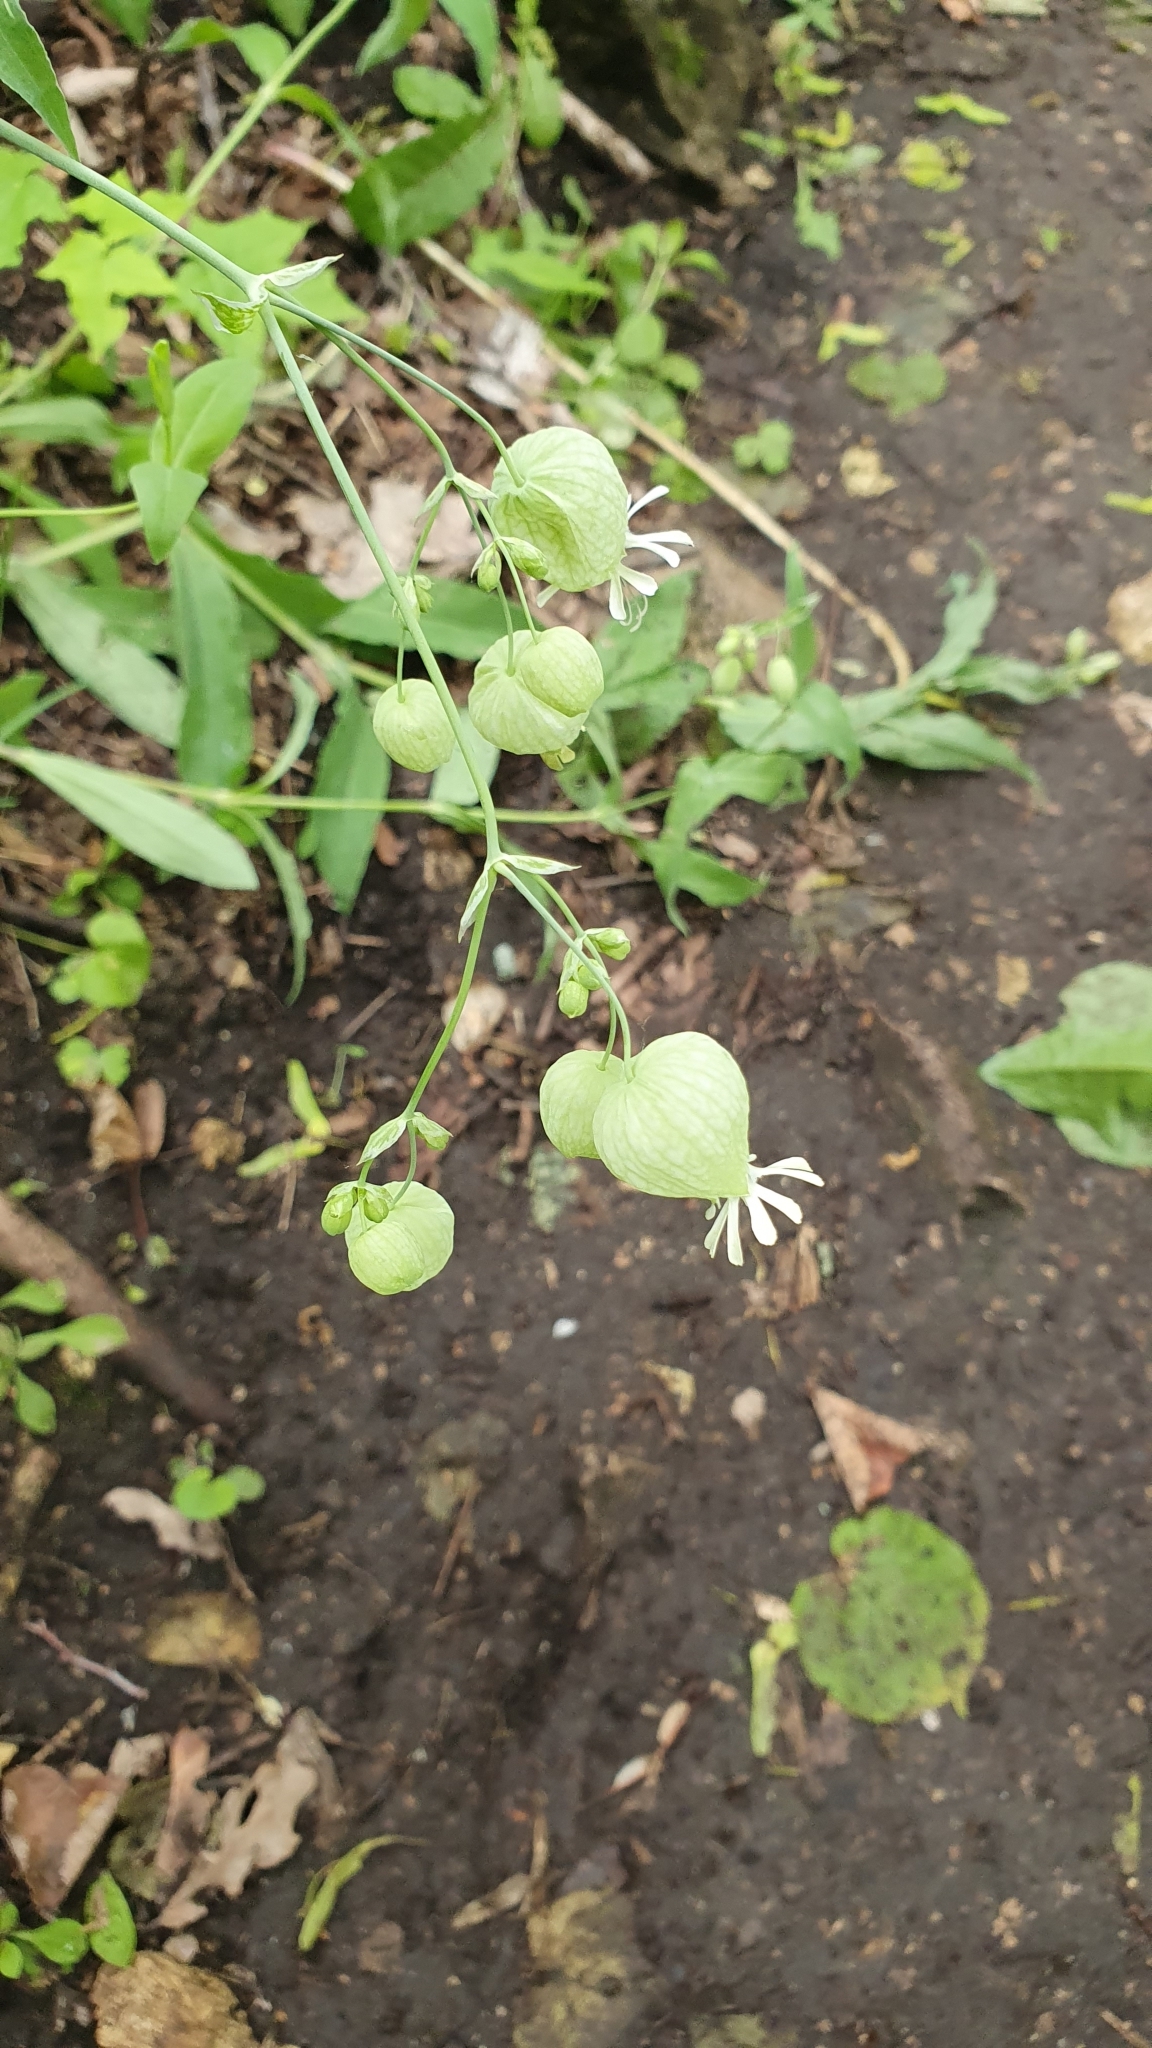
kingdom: Plantae
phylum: Tracheophyta
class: Magnoliopsida
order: Caryophyllales
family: Caryophyllaceae
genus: Silene
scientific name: Silene vulgaris
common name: Bladder campion
